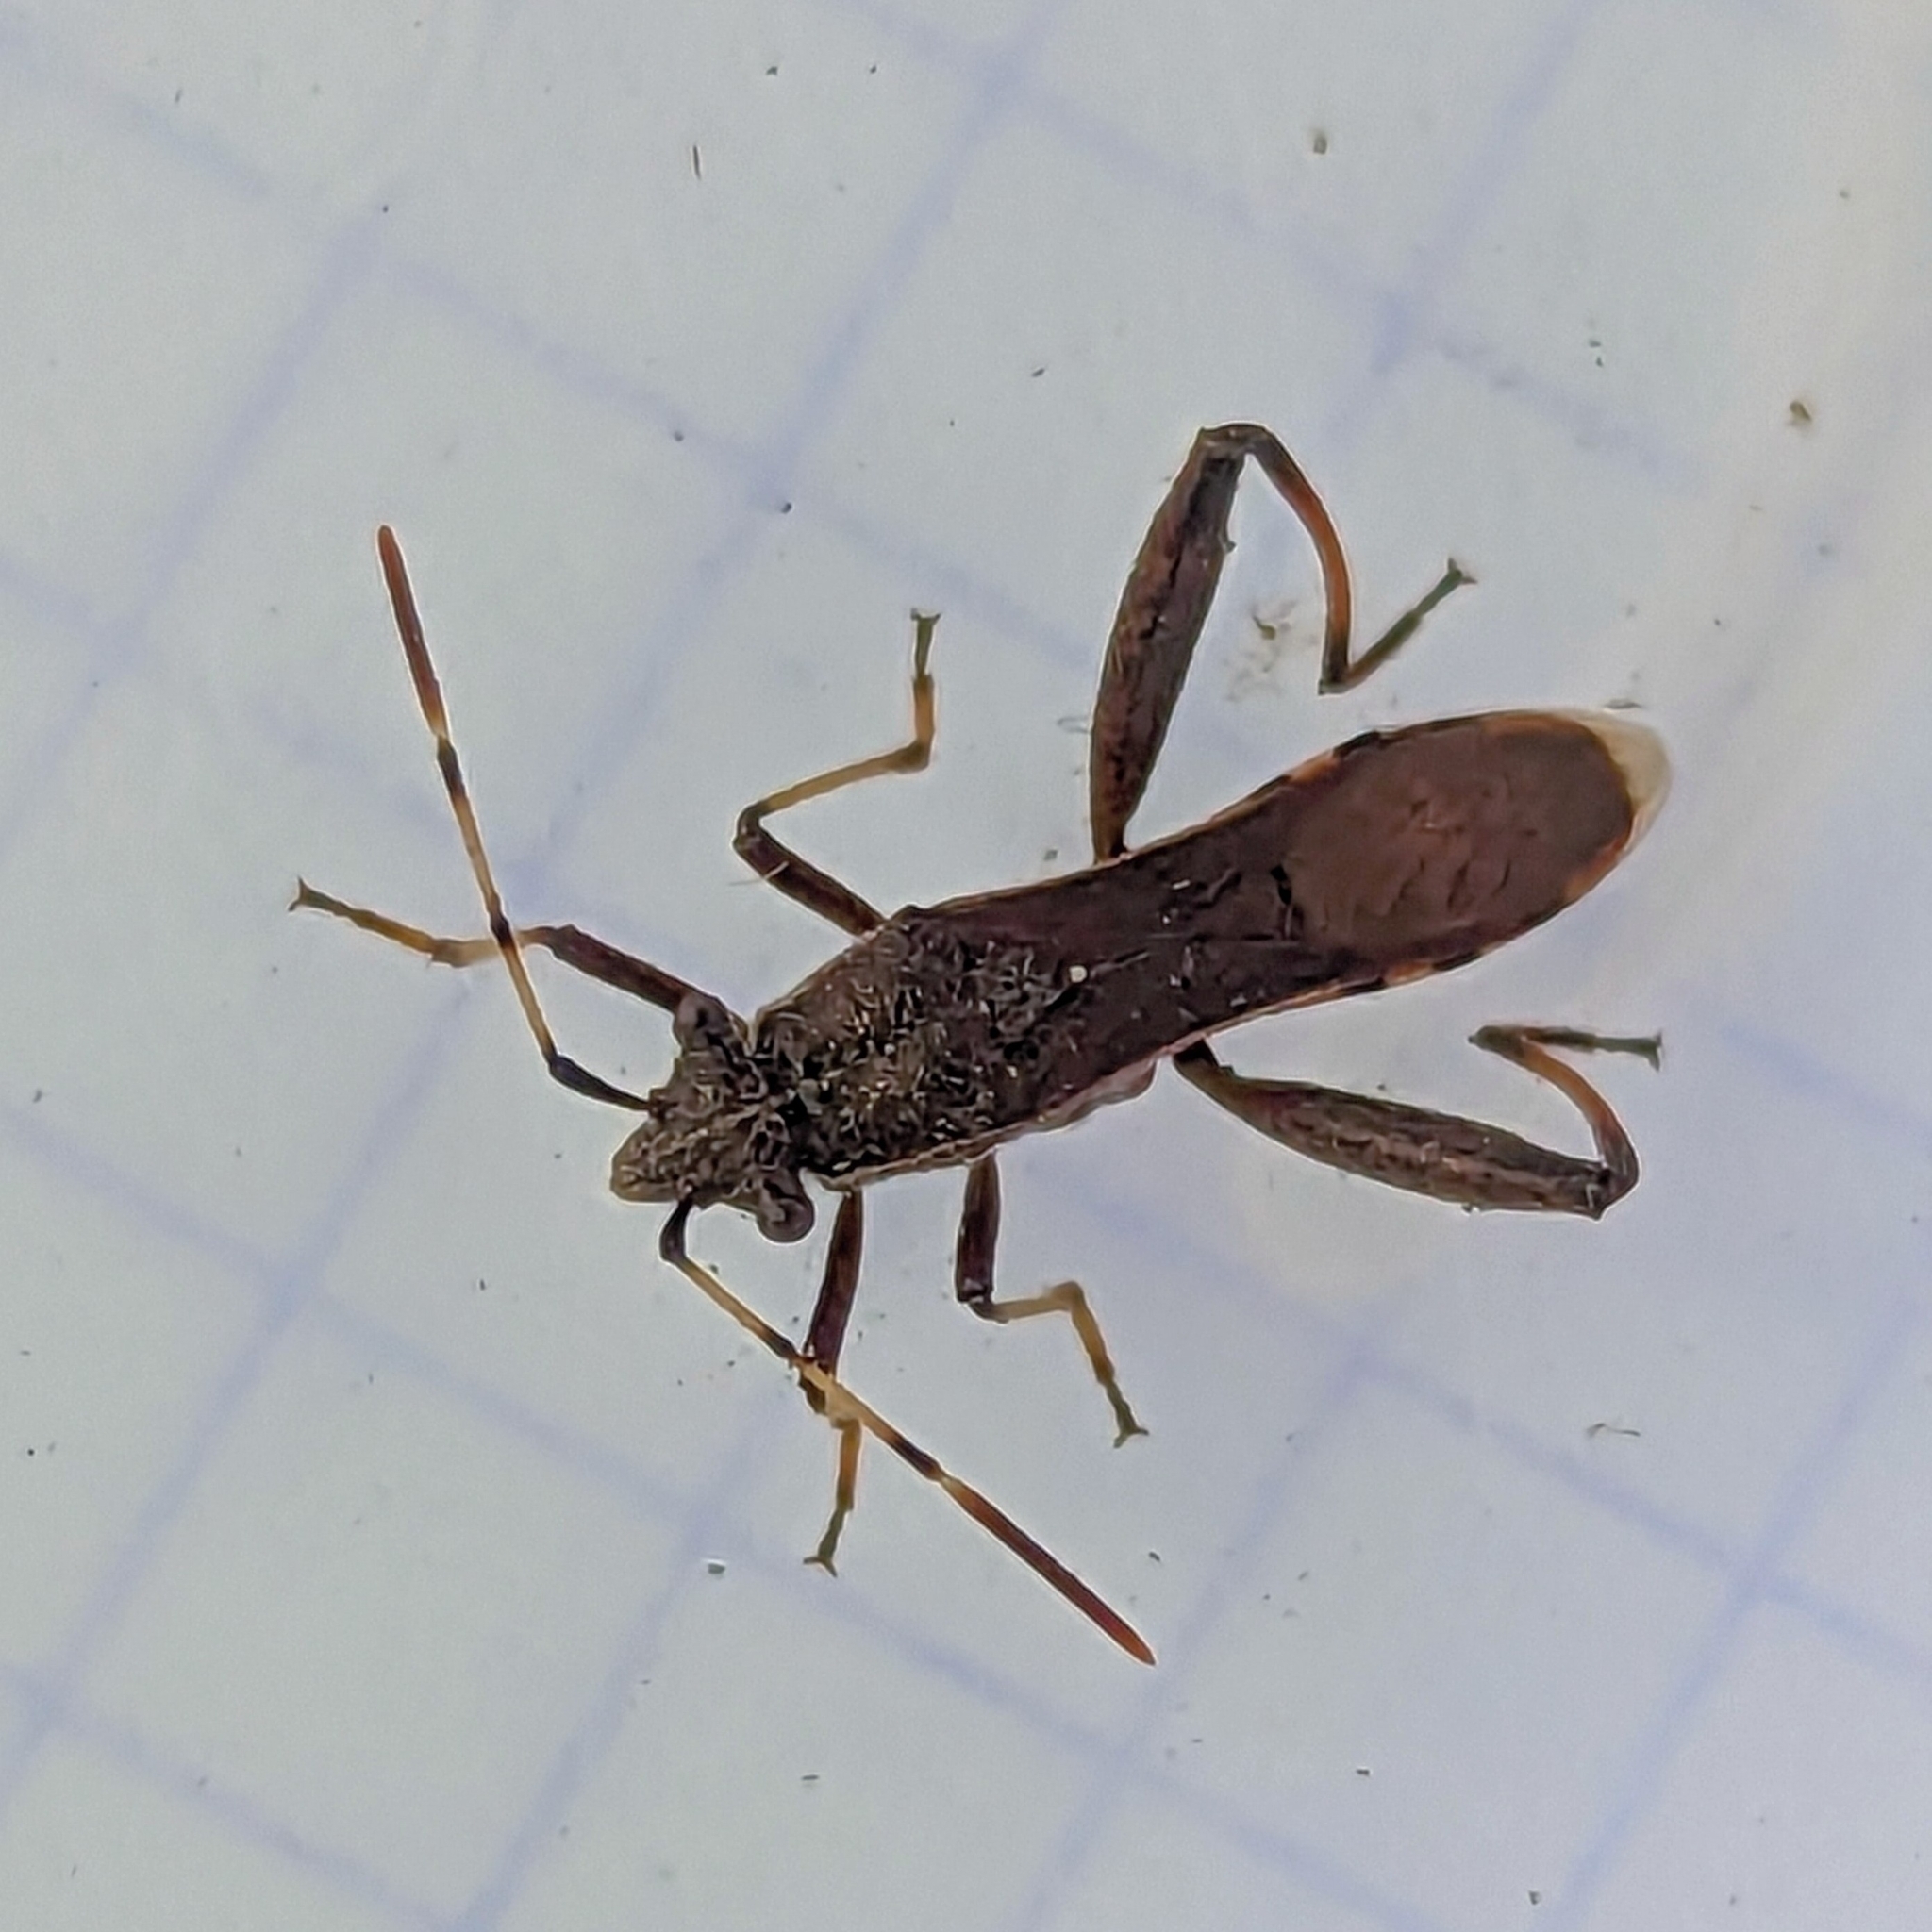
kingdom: Animalia
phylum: Arthropoda
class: Insecta
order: Hemiptera
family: Alydidae
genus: Camptopus
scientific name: Camptopus lateralis
